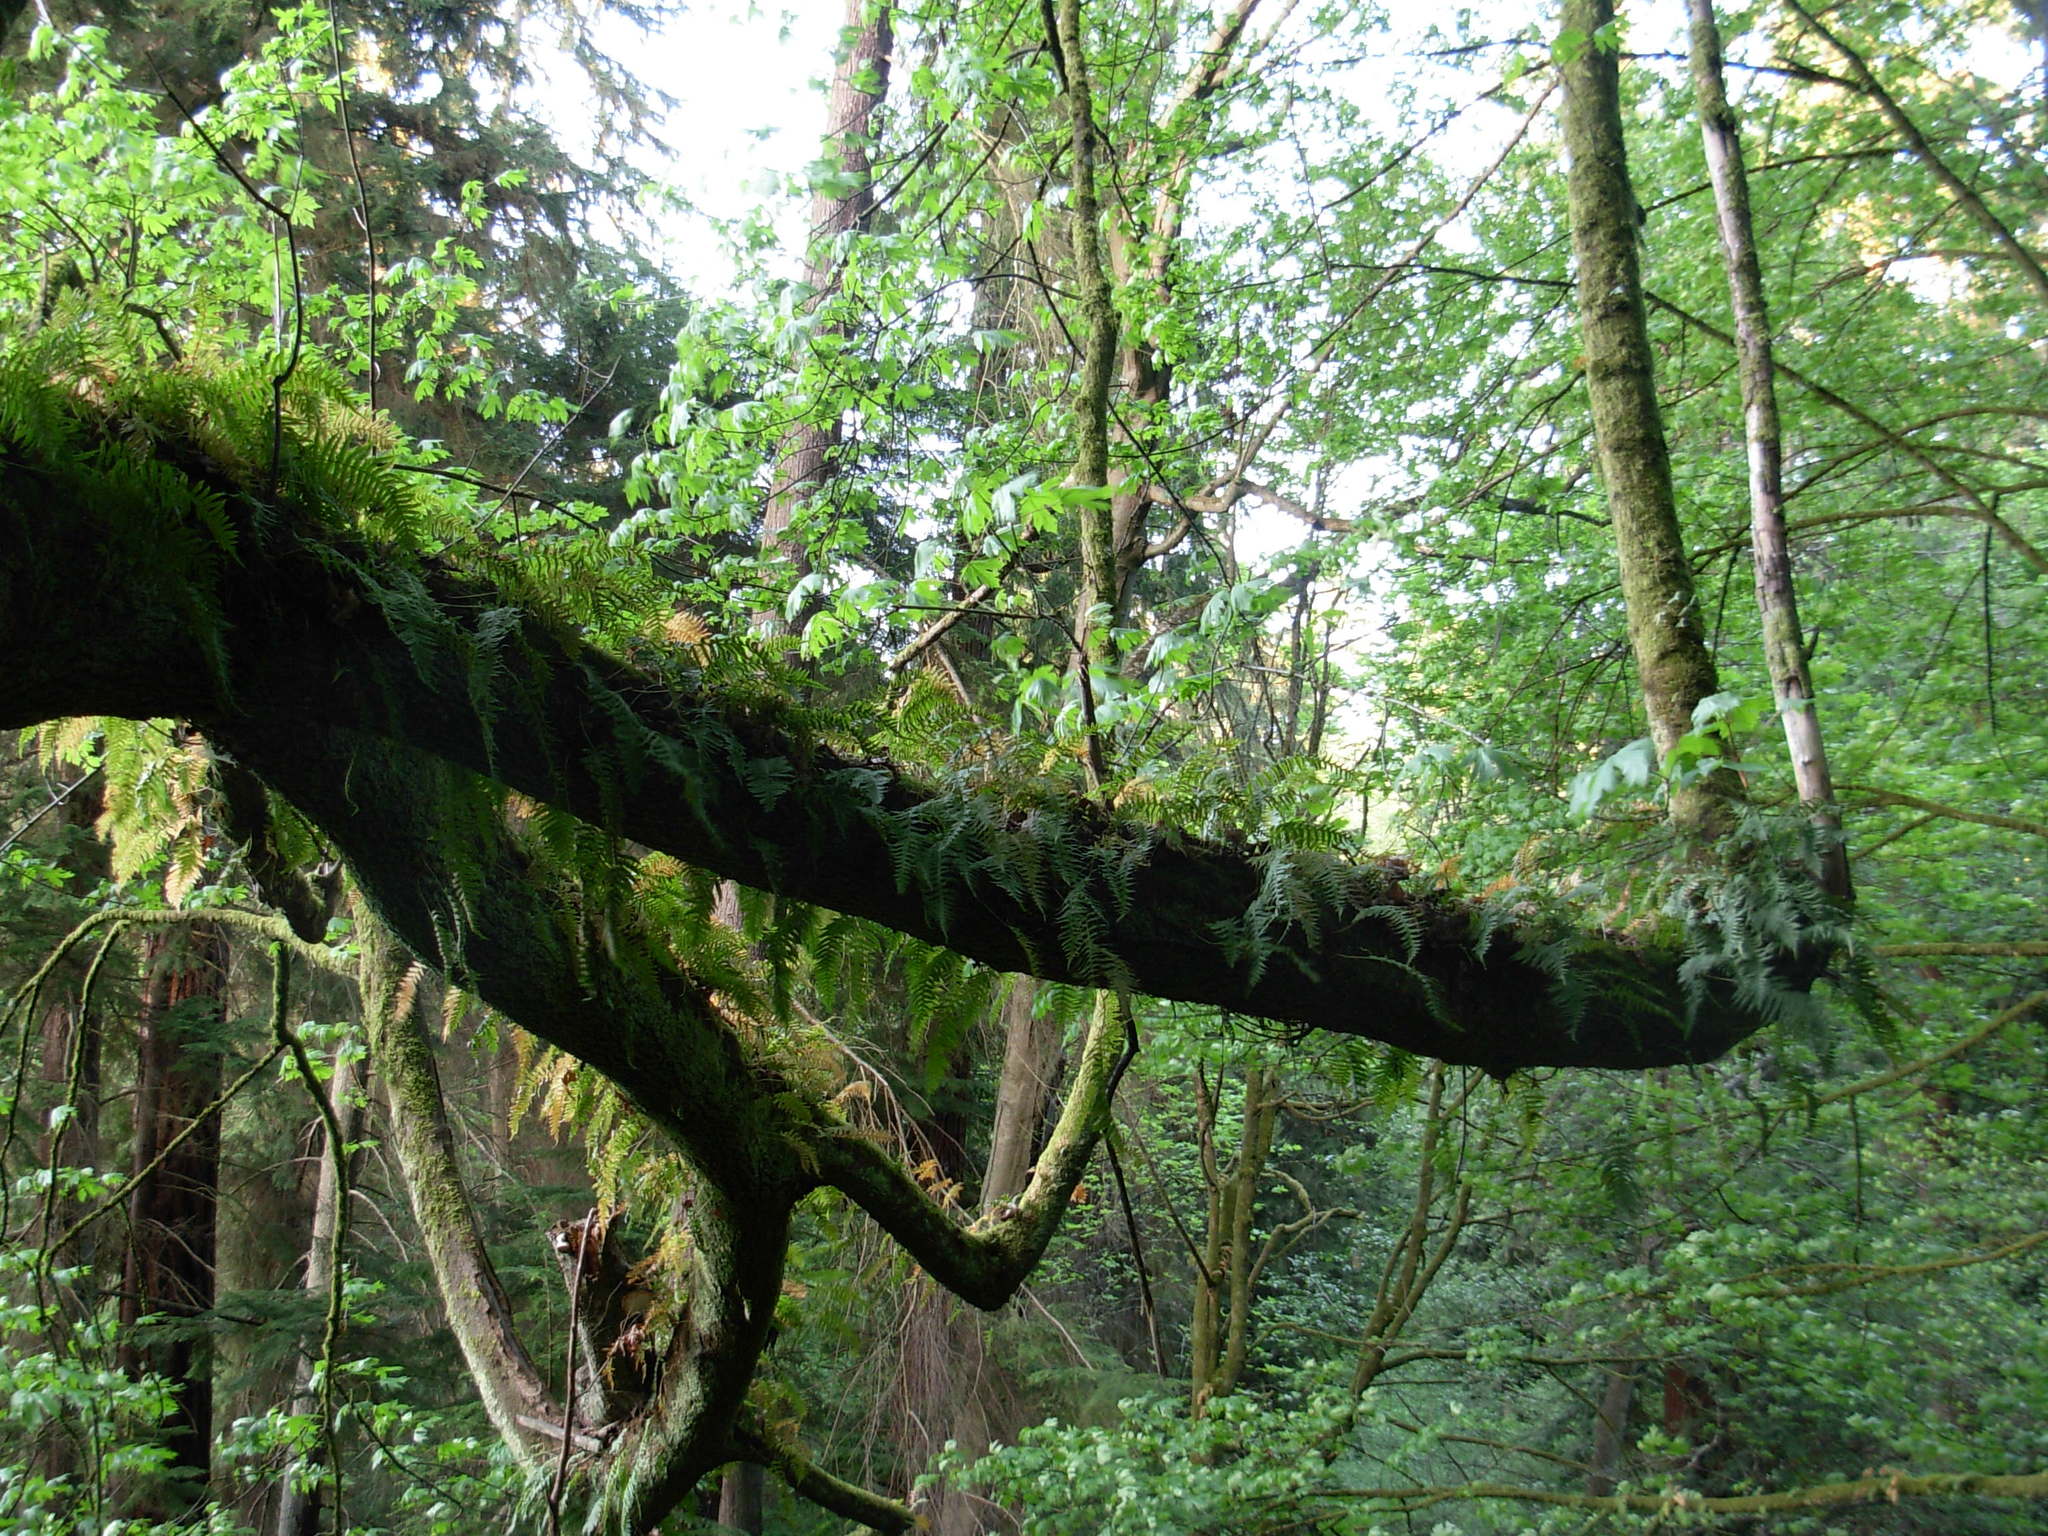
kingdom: Plantae
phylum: Tracheophyta
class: Magnoliopsida
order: Sapindales
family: Sapindaceae
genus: Acer
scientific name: Acer macrophyllum
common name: Oregon maple
